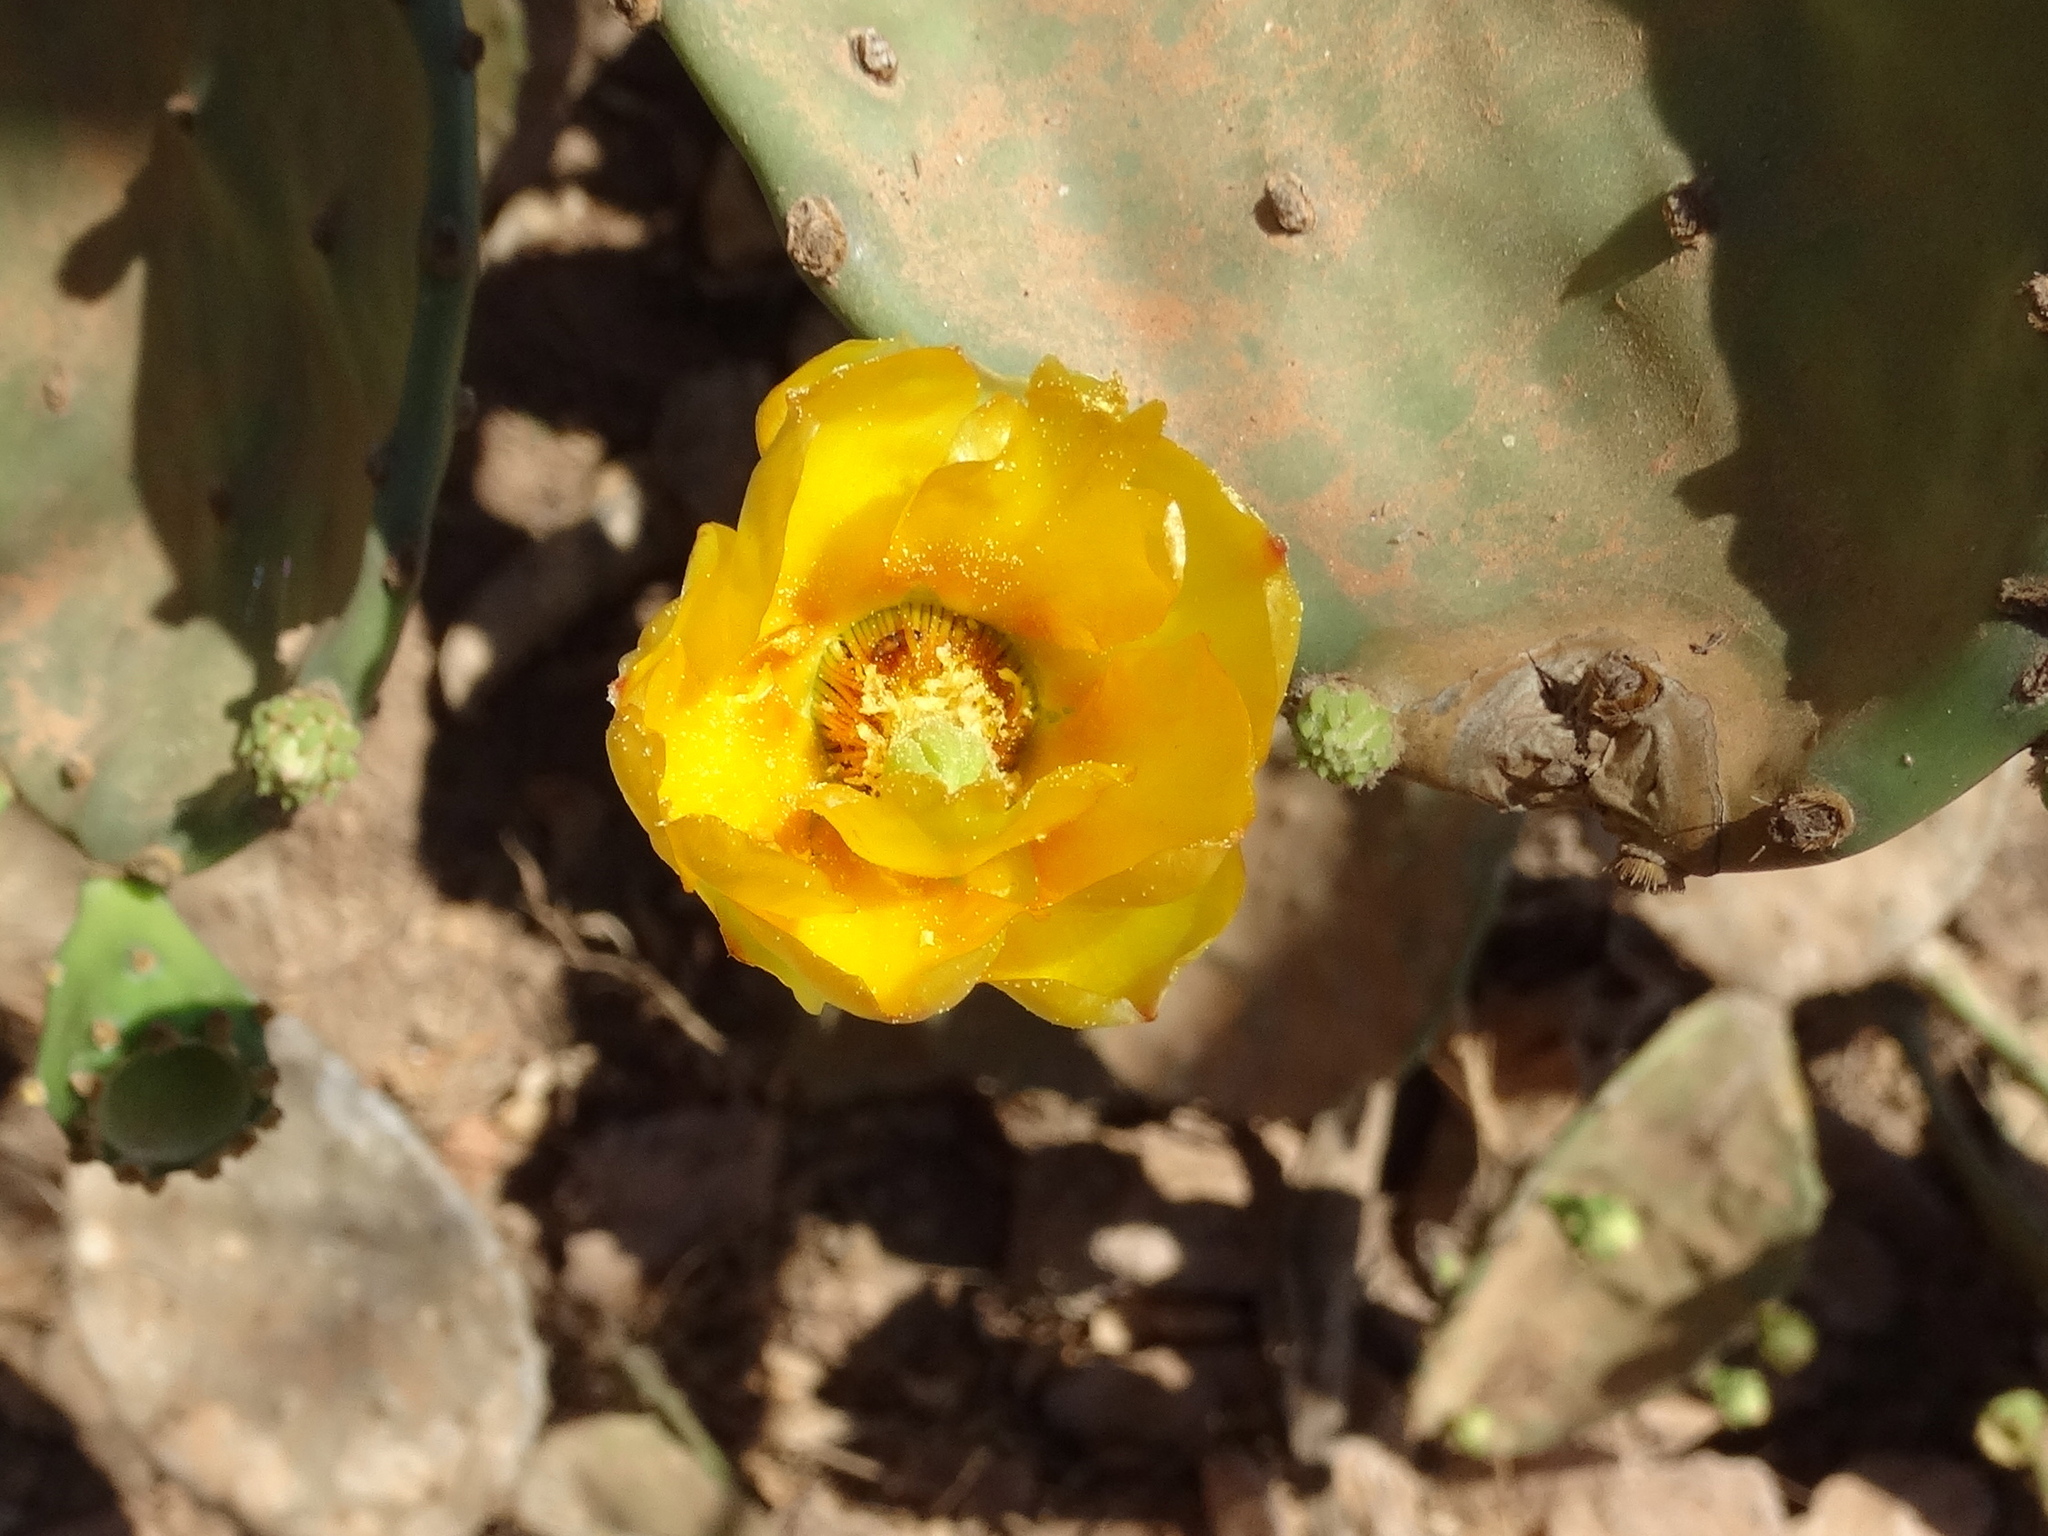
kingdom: Plantae
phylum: Tracheophyta
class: Magnoliopsida
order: Caryophyllales
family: Cactaceae
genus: Opuntia
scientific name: Opuntia wilcoxii
